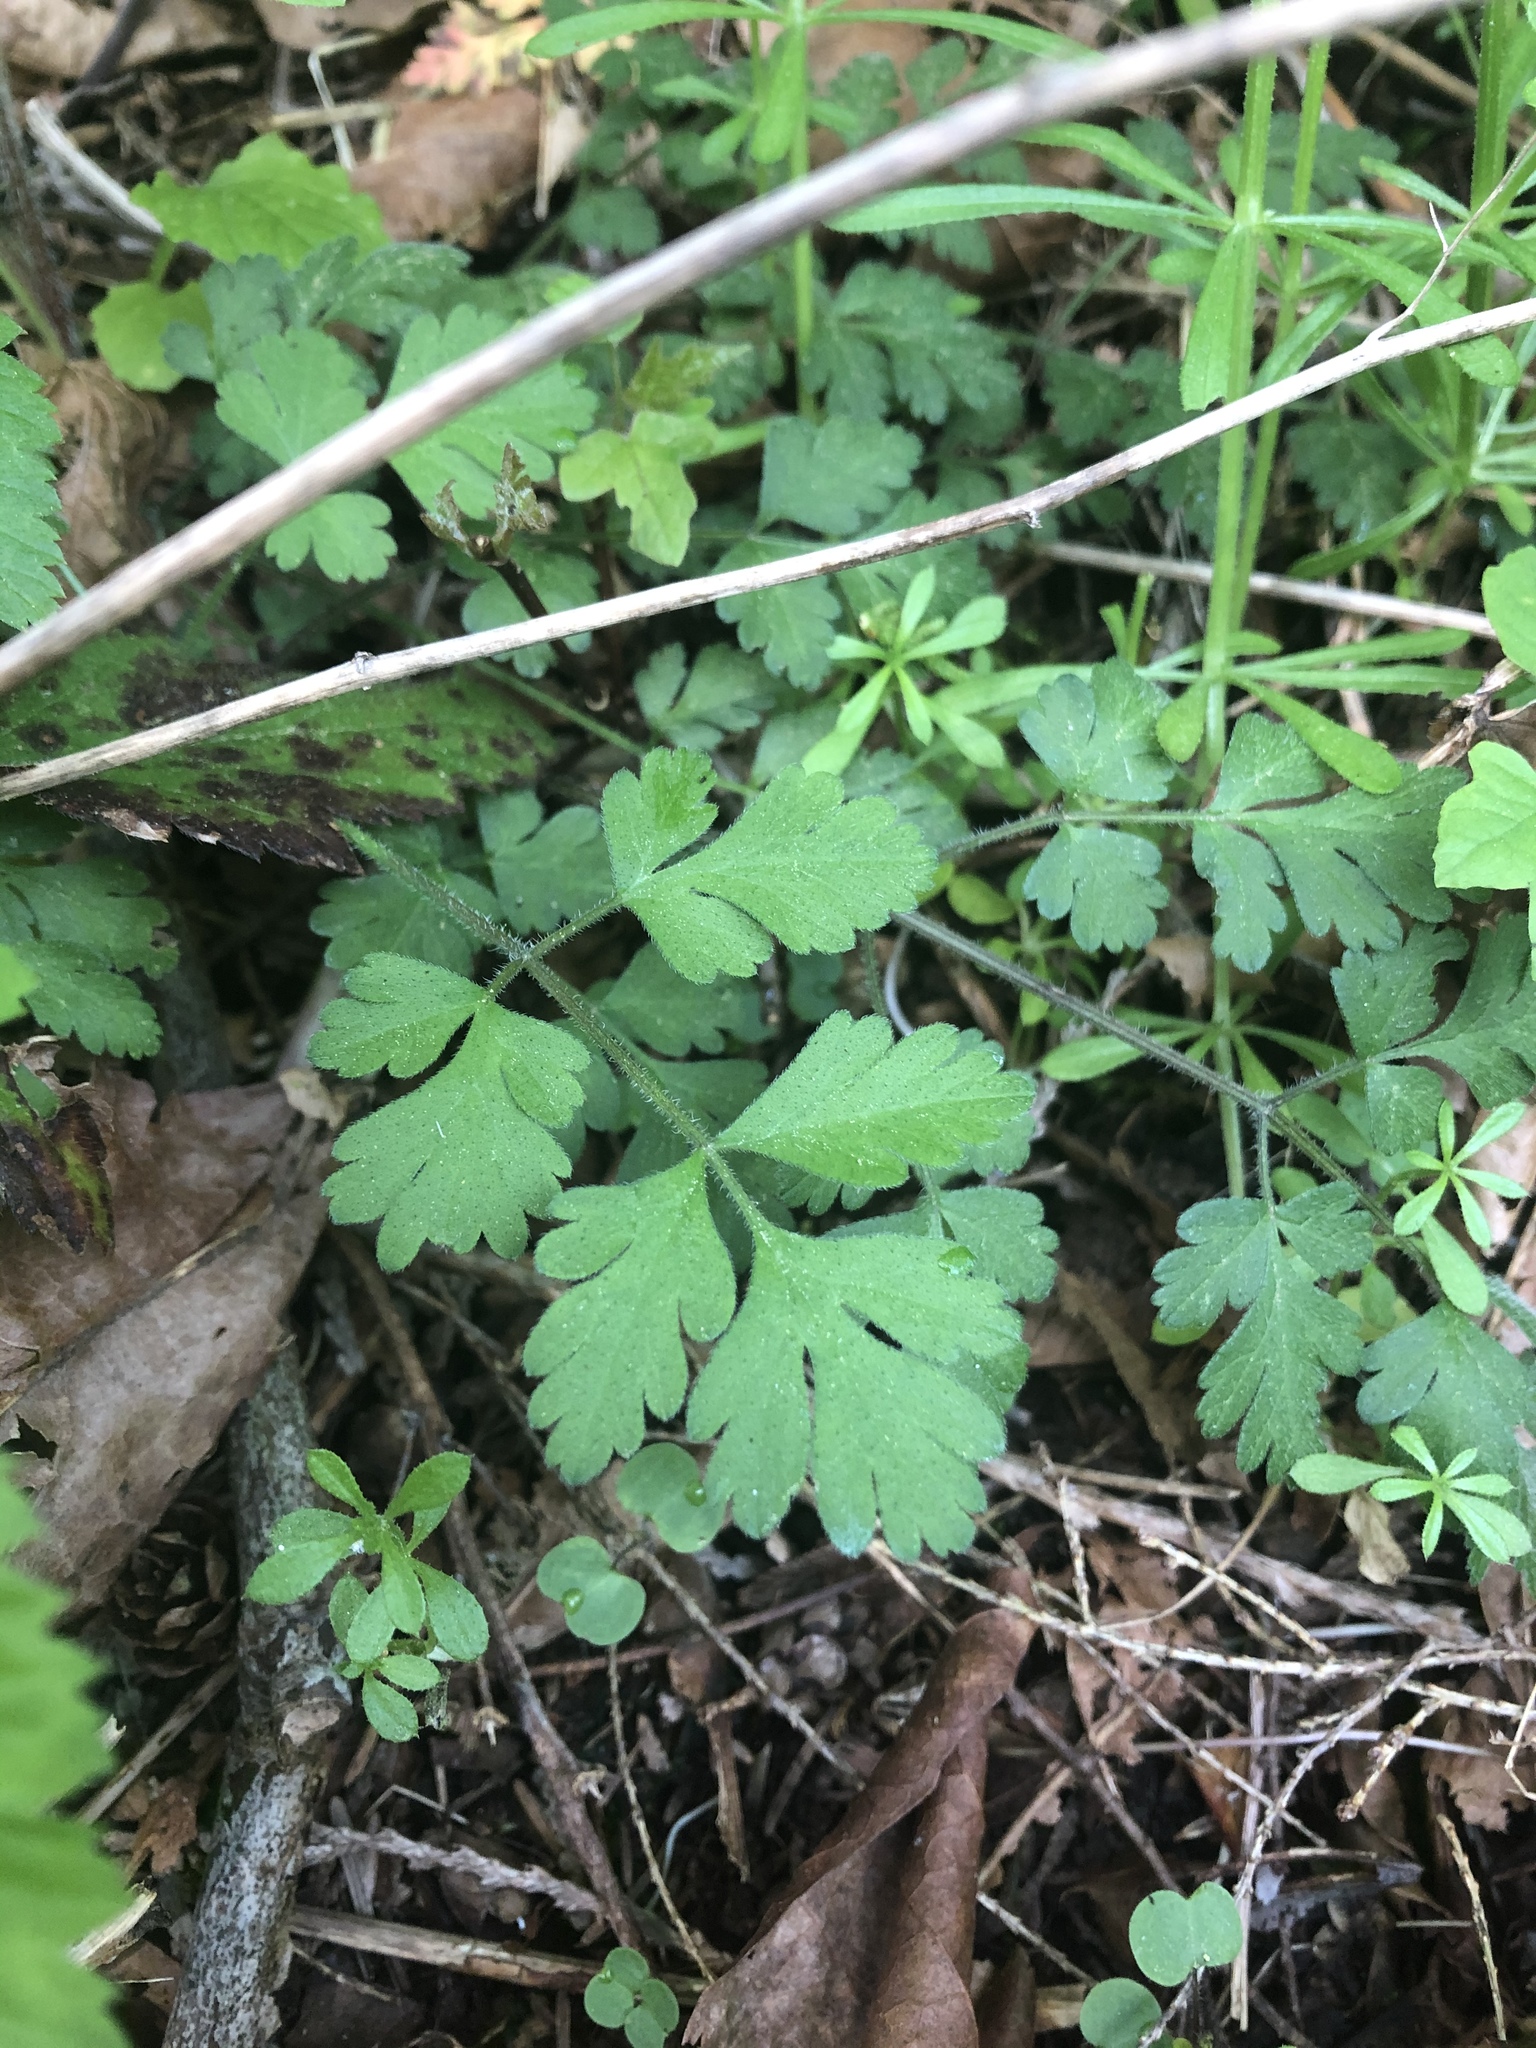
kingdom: Plantae
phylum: Tracheophyta
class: Magnoliopsida
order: Apiales
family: Apiaceae
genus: Chaerophyllum
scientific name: Chaerophyllum temulum
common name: Rough chervil
